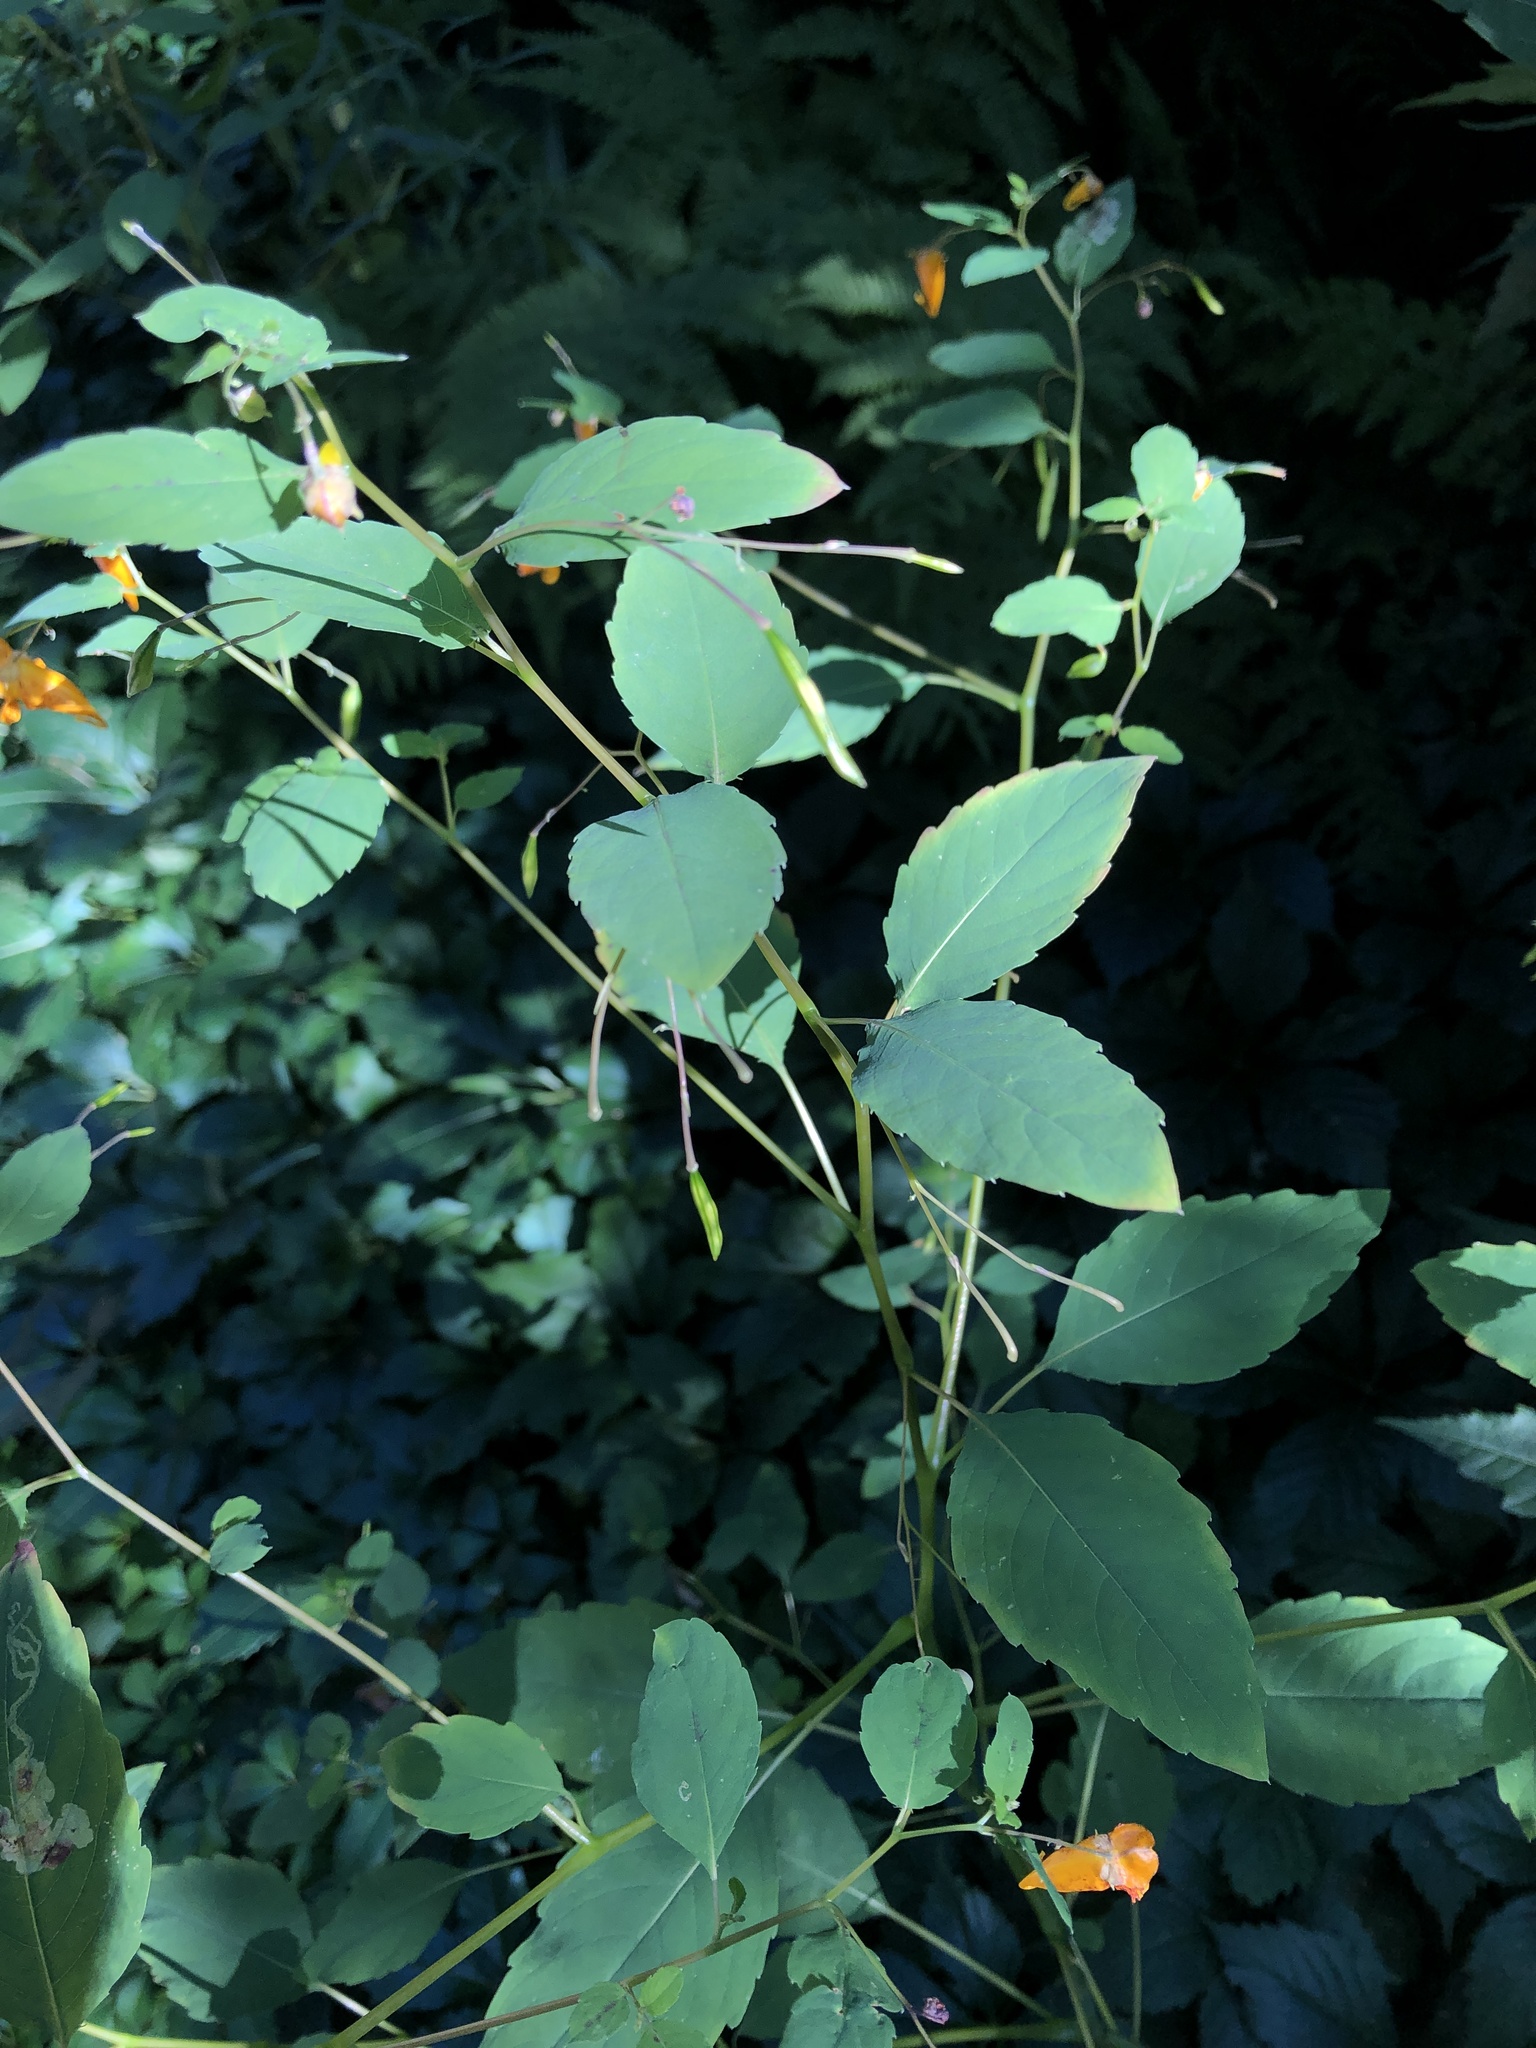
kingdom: Plantae
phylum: Tracheophyta
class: Magnoliopsida
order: Ericales
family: Balsaminaceae
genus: Impatiens
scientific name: Impatiens capensis
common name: Orange balsam
